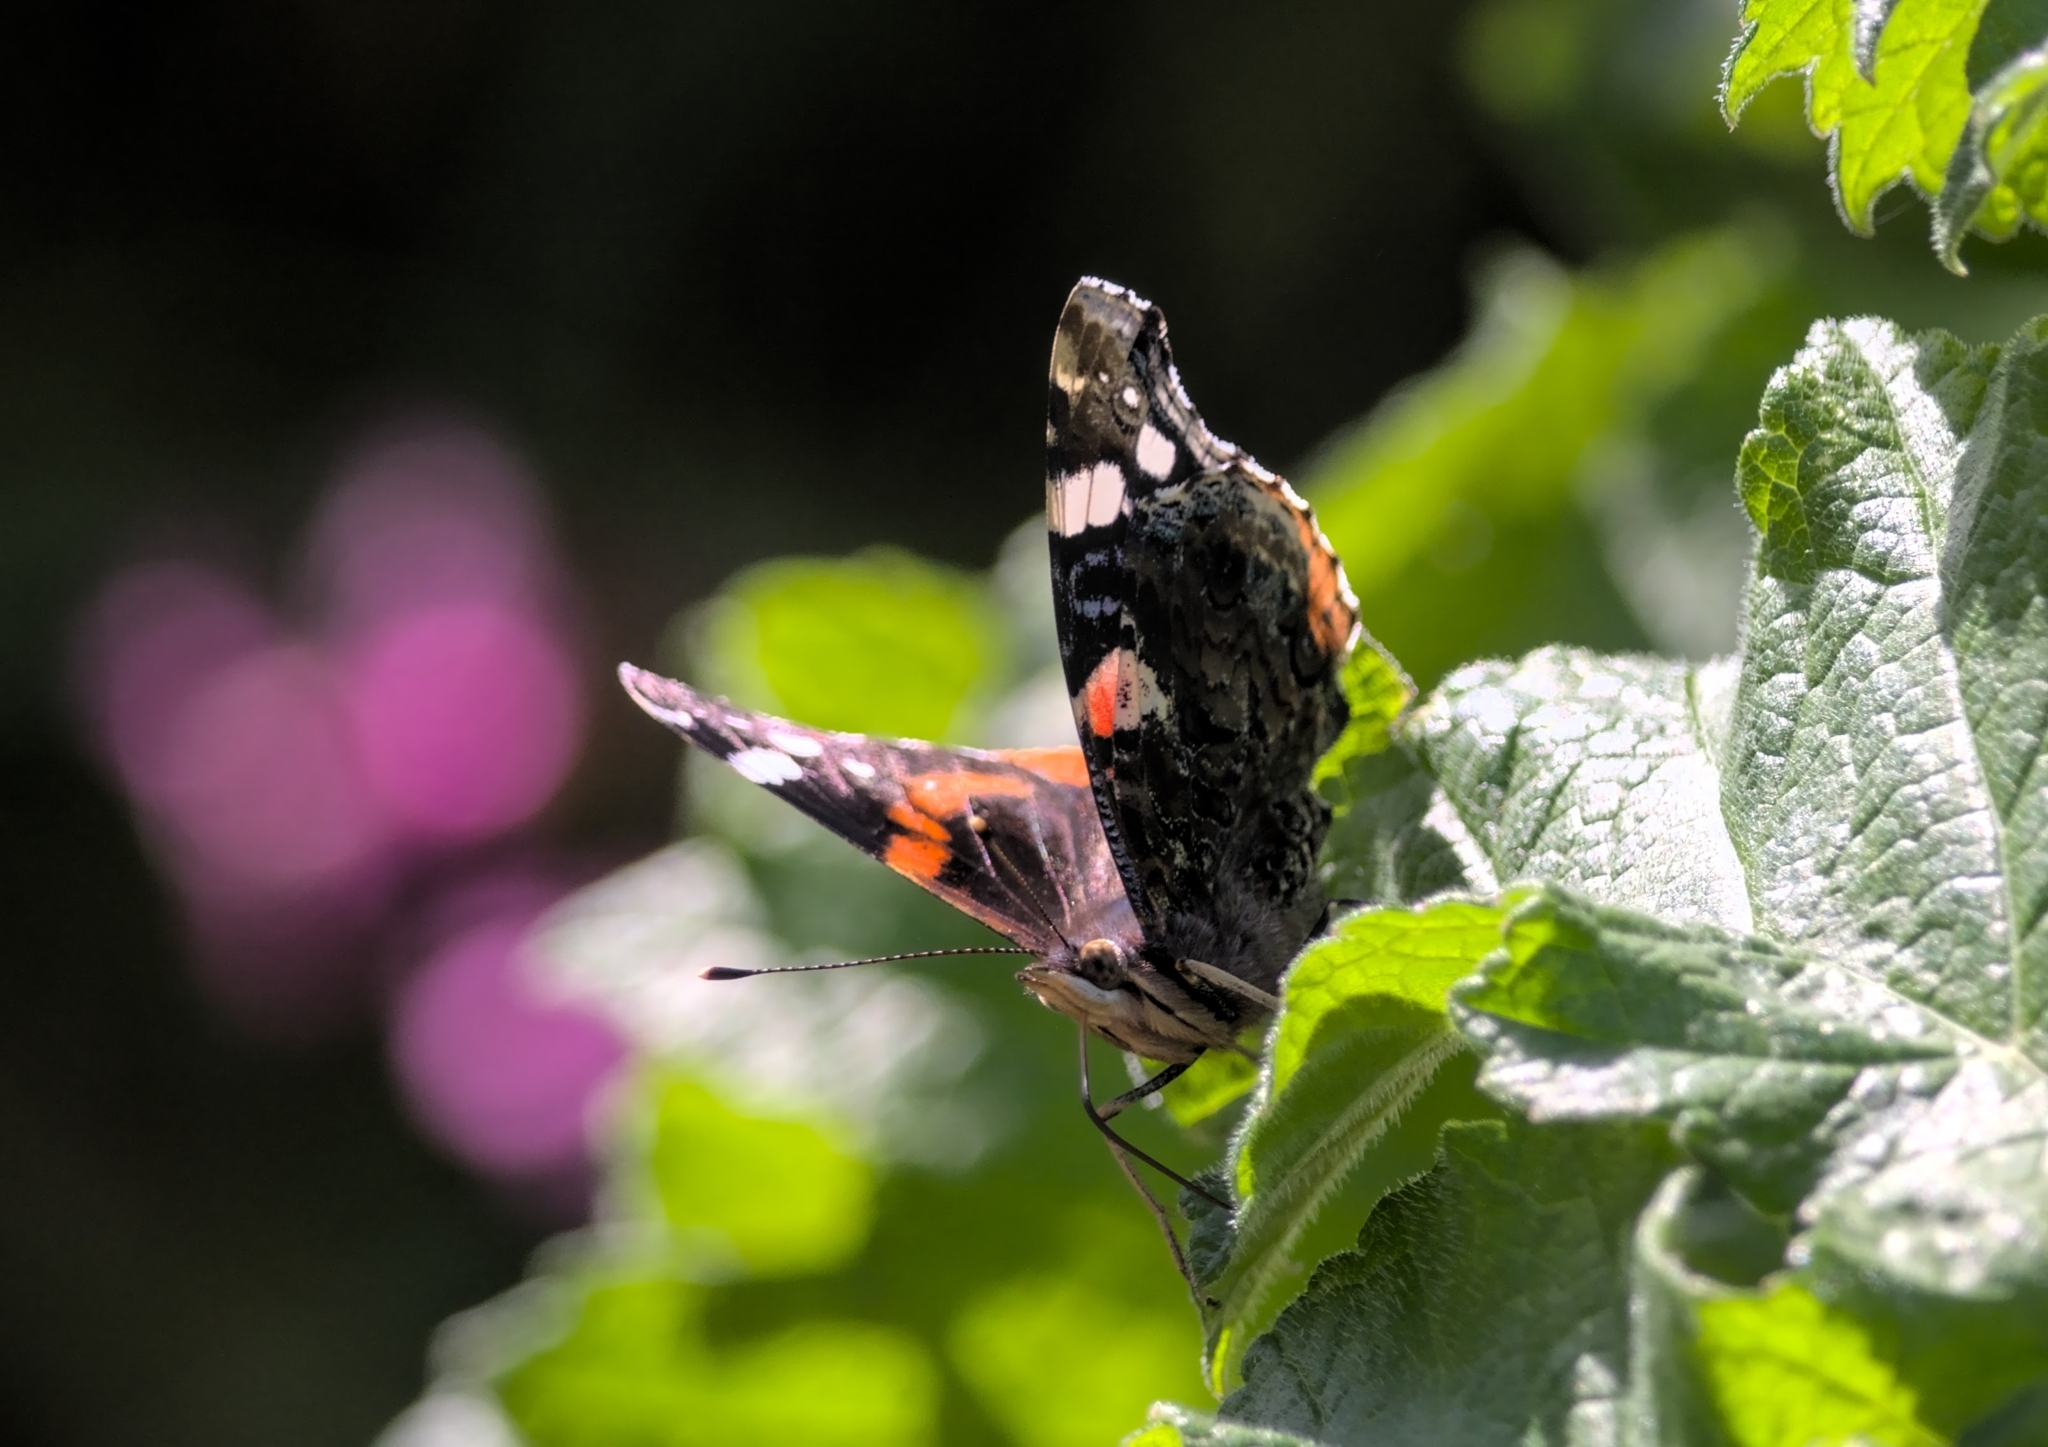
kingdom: Animalia
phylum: Arthropoda
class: Insecta
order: Lepidoptera
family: Nymphalidae
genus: Vanessa
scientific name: Vanessa atalanta
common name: Red admiral
